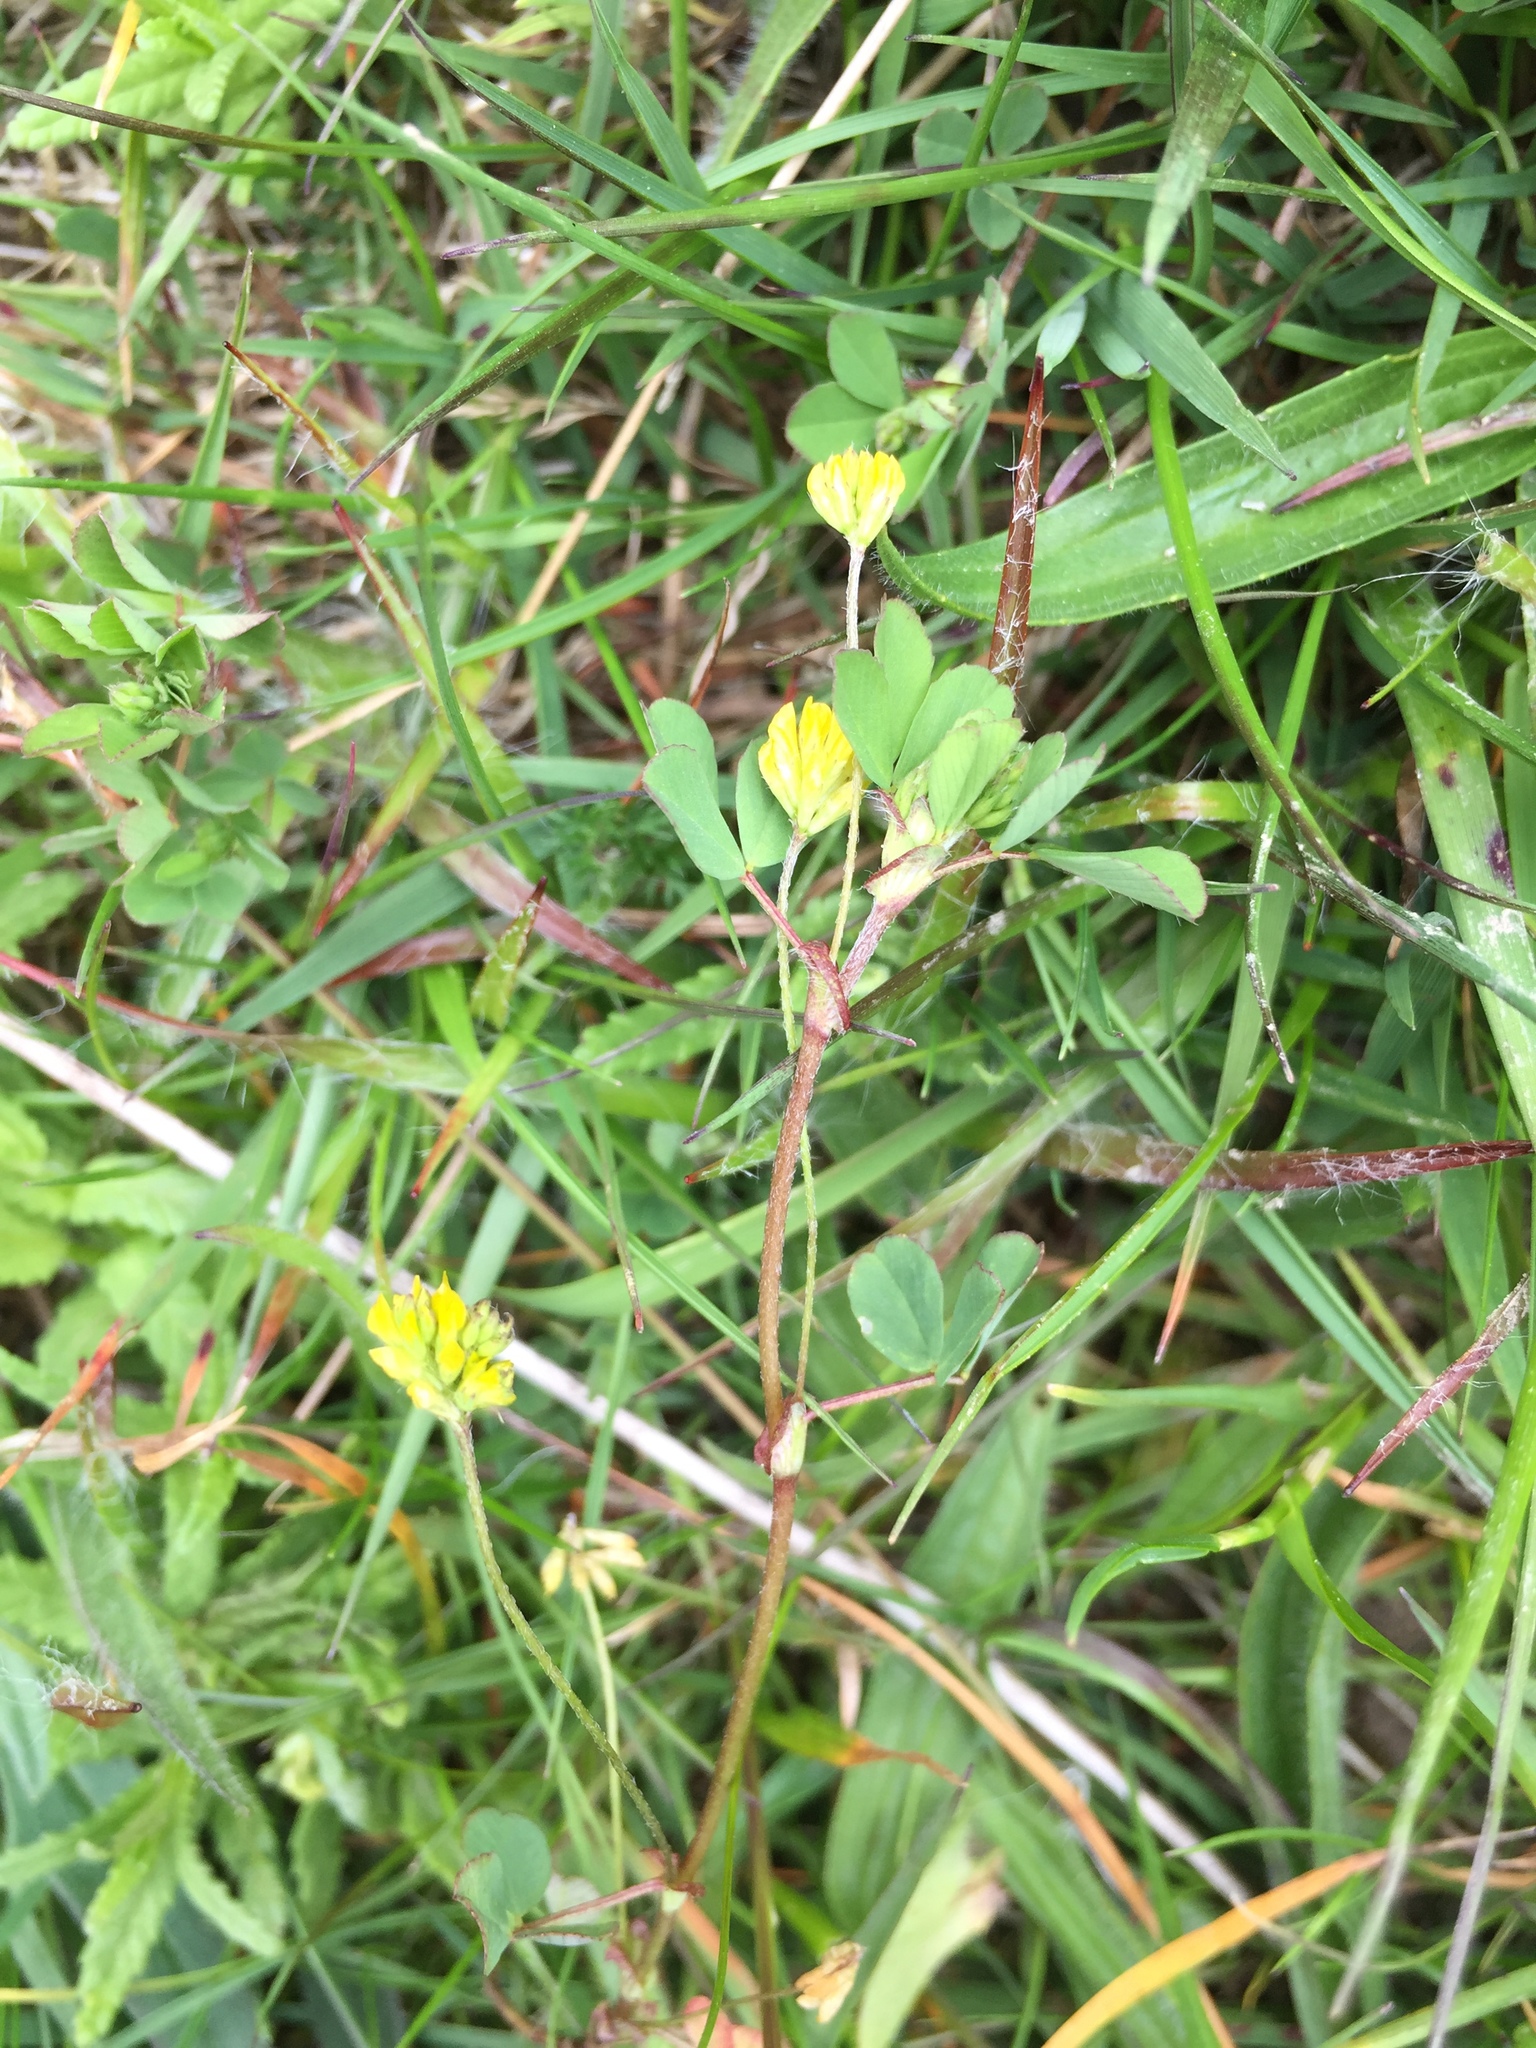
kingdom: Plantae
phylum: Tracheophyta
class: Magnoliopsida
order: Fabales
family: Fabaceae
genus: Trifolium
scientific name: Trifolium dubium
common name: Suckling clover
